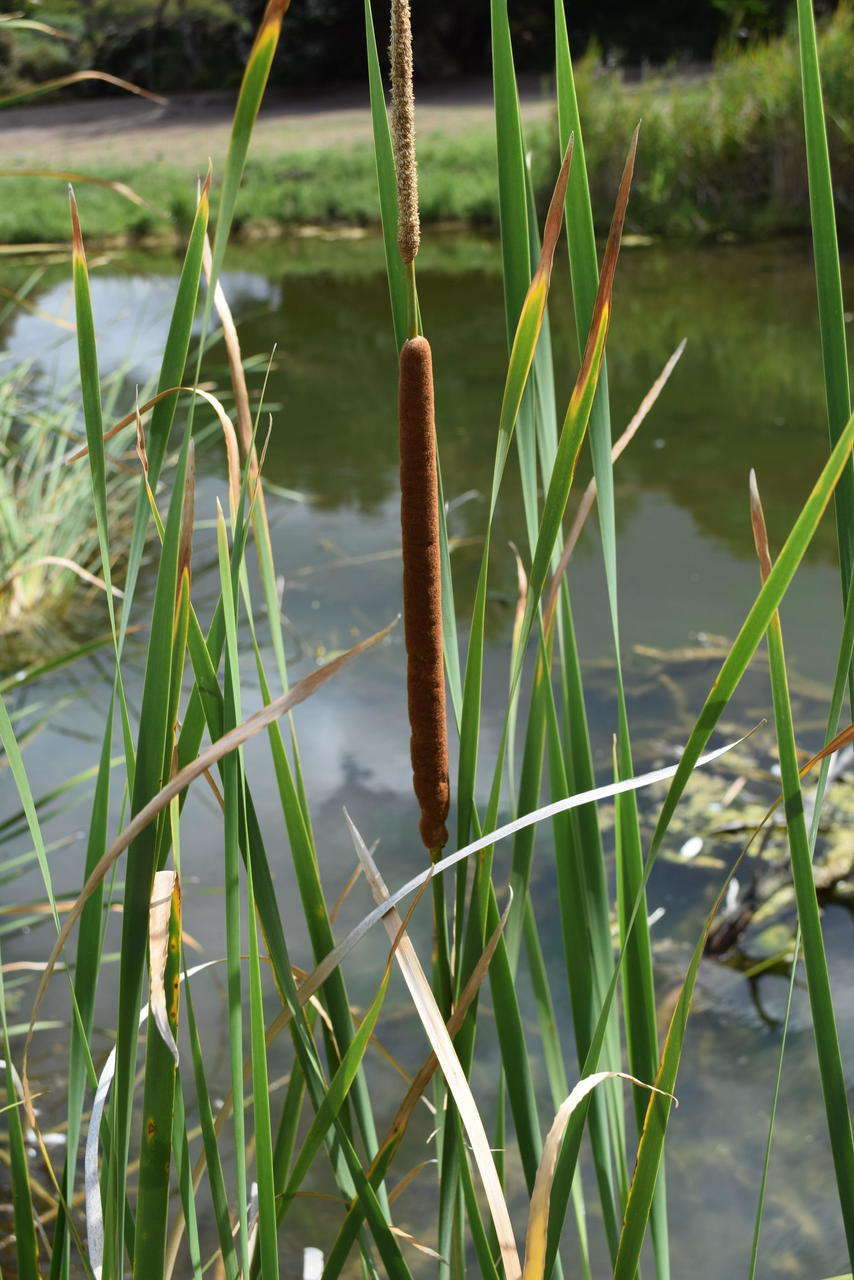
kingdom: Plantae
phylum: Tracheophyta
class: Liliopsida
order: Poales
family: Typhaceae
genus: Typha
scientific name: Typha domingensis
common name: Southern cattail
